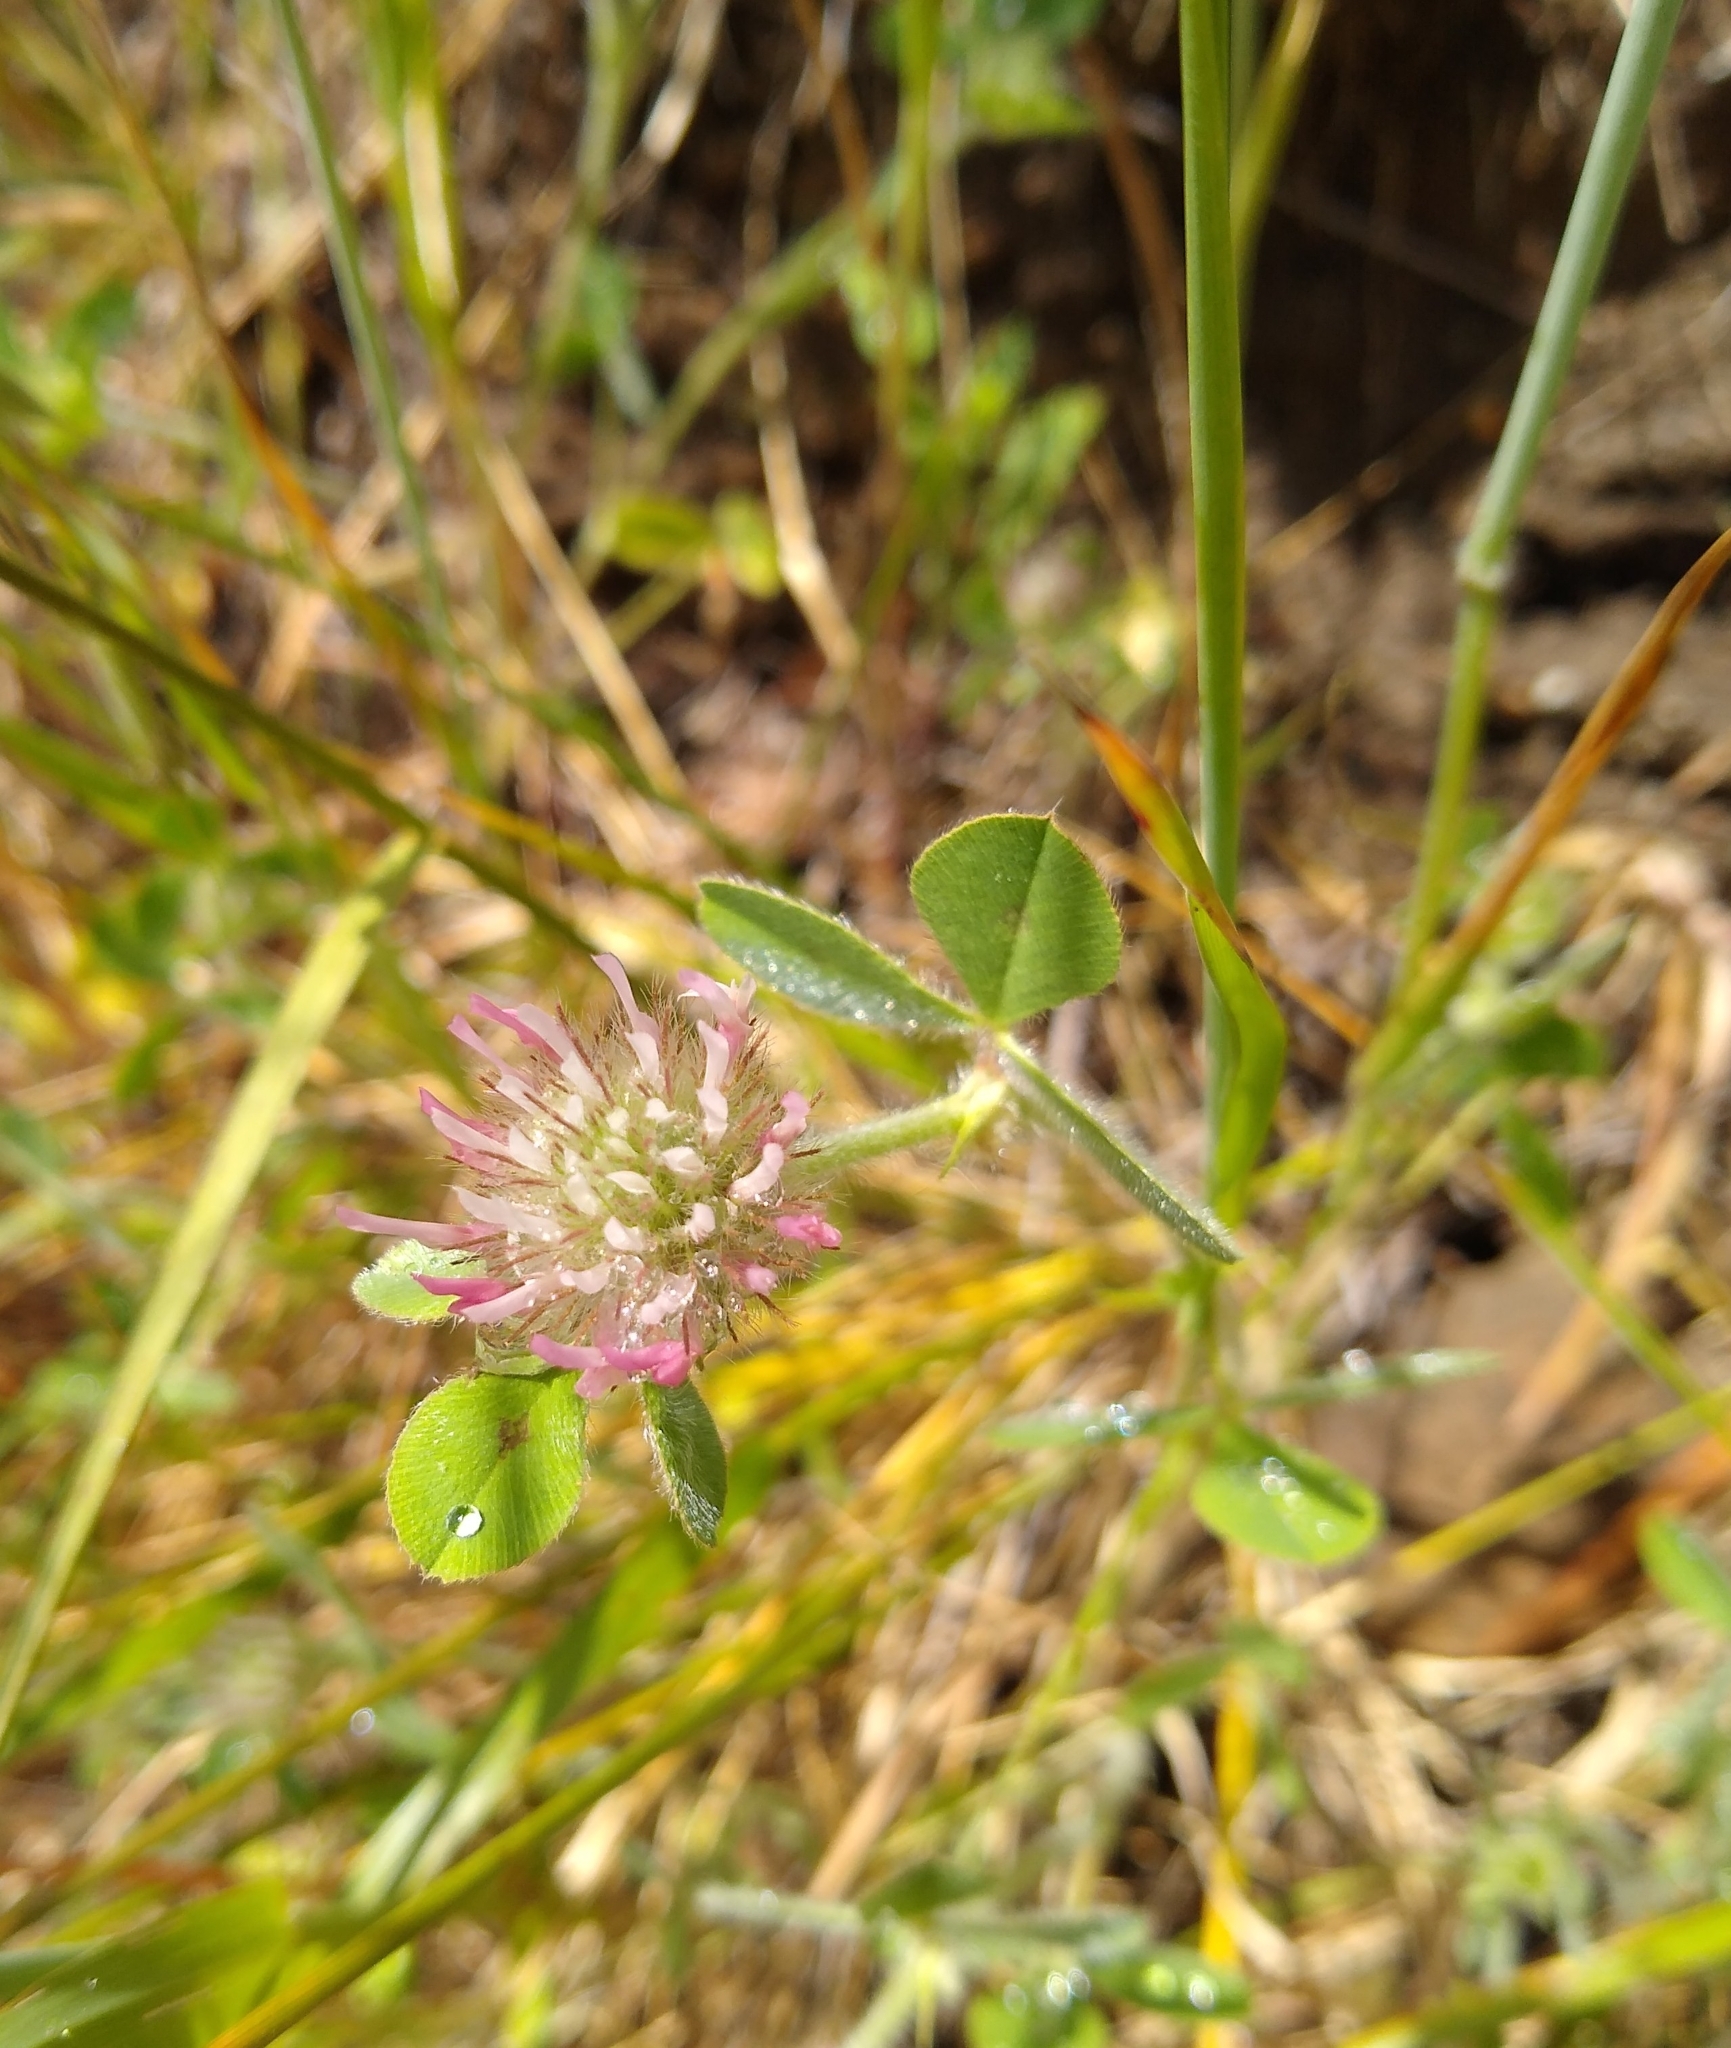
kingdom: Plantae
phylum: Tracheophyta
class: Magnoliopsida
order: Fabales
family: Fabaceae
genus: Trifolium
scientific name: Trifolium hirtum
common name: Rose clover
